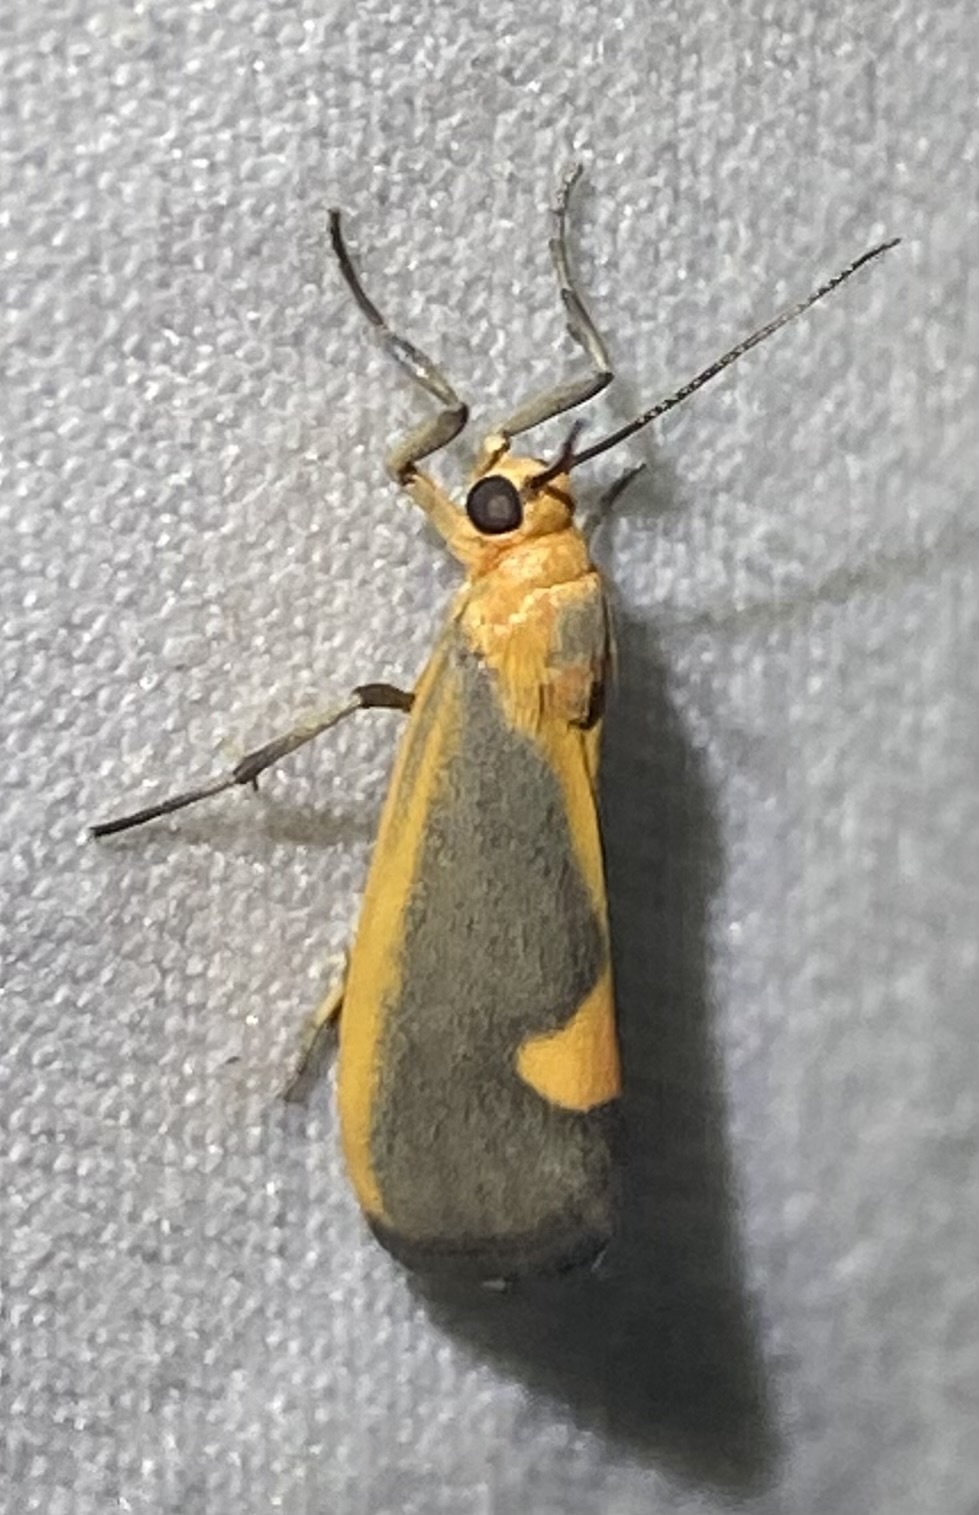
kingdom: Animalia
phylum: Arthropoda
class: Insecta
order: Lepidoptera
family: Erebidae
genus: Cisthene
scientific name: Cisthene plumbea
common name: Lead colored lichen moth
